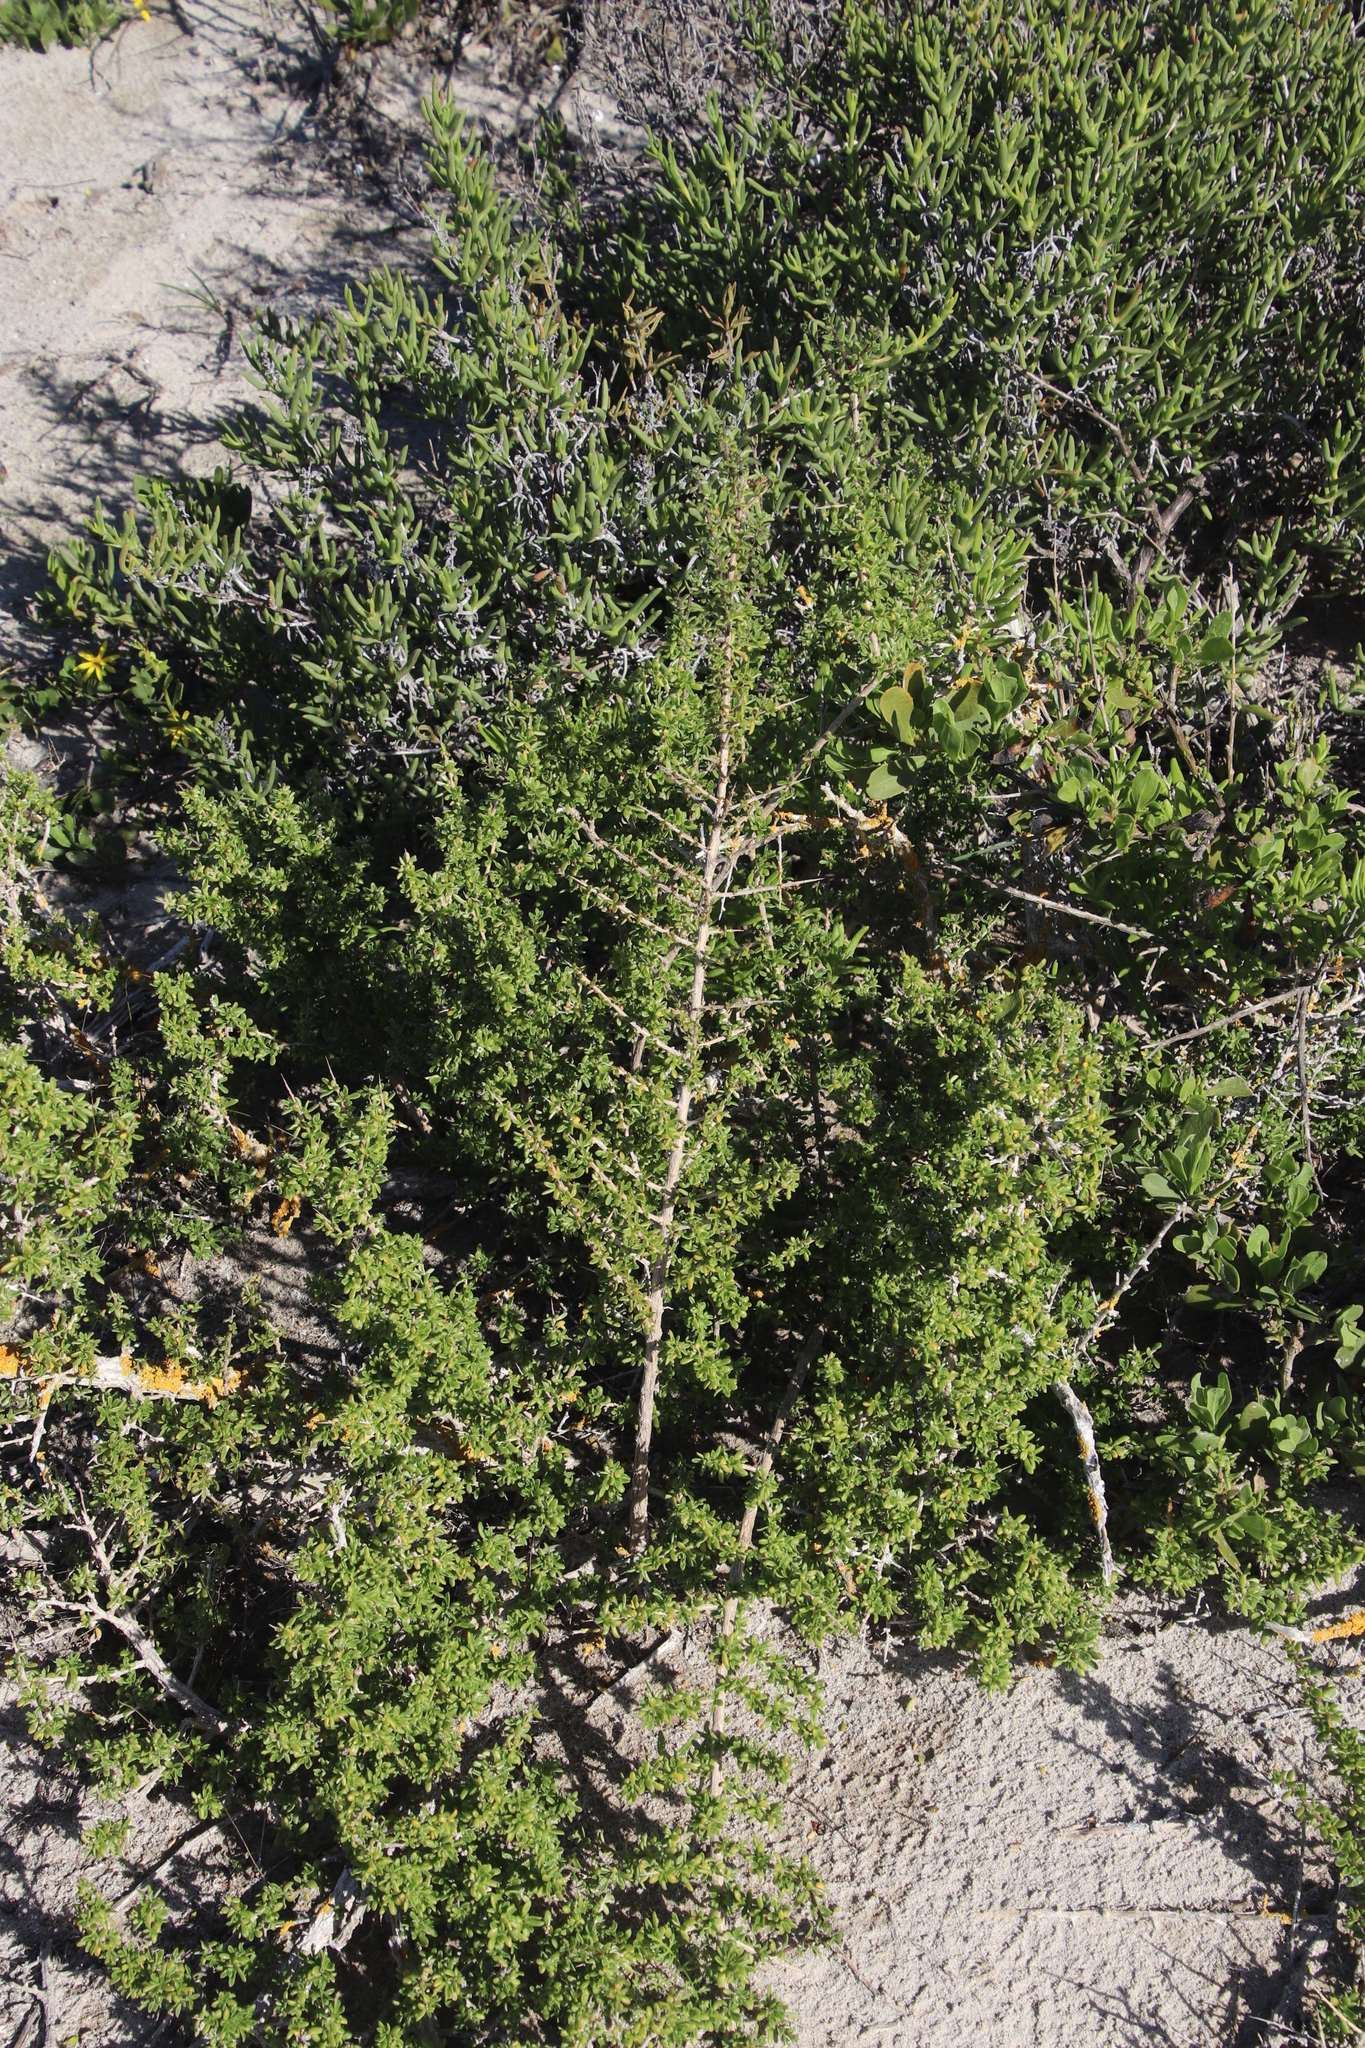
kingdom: Plantae
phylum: Tracheophyta
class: Magnoliopsida
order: Solanales
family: Solanaceae
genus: Lycium
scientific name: Lycium tetrandrum
